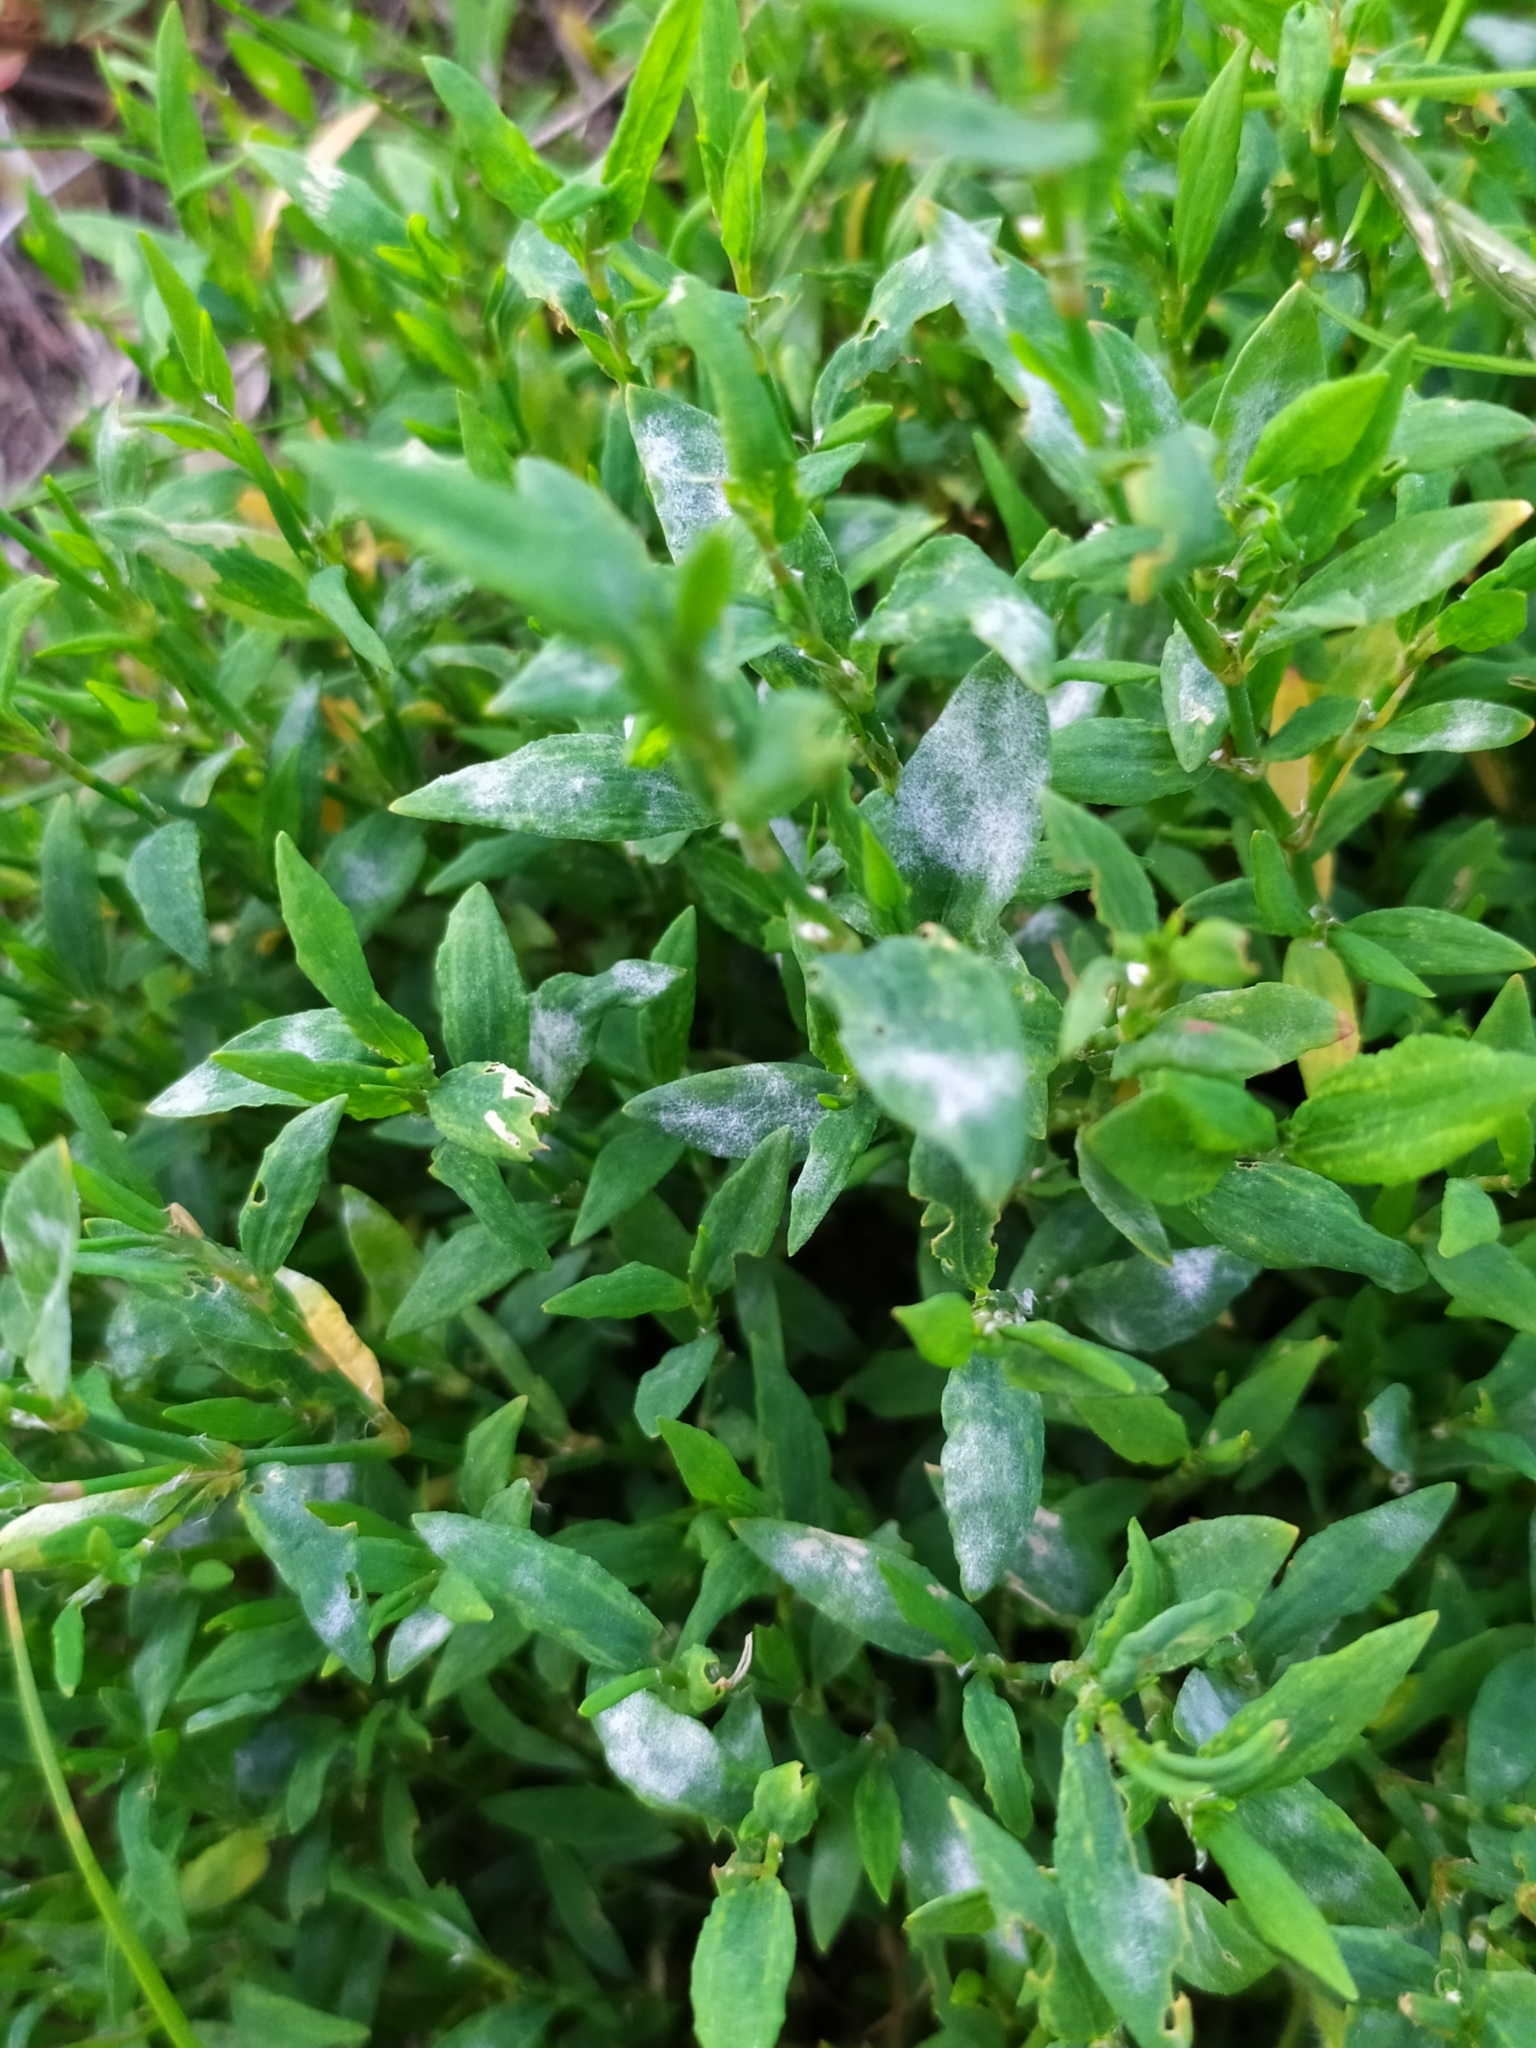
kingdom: Fungi
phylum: Ascomycota
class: Leotiomycetes
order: Helotiales
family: Erysiphaceae
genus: Erysiphe
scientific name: Erysiphe polygoni
